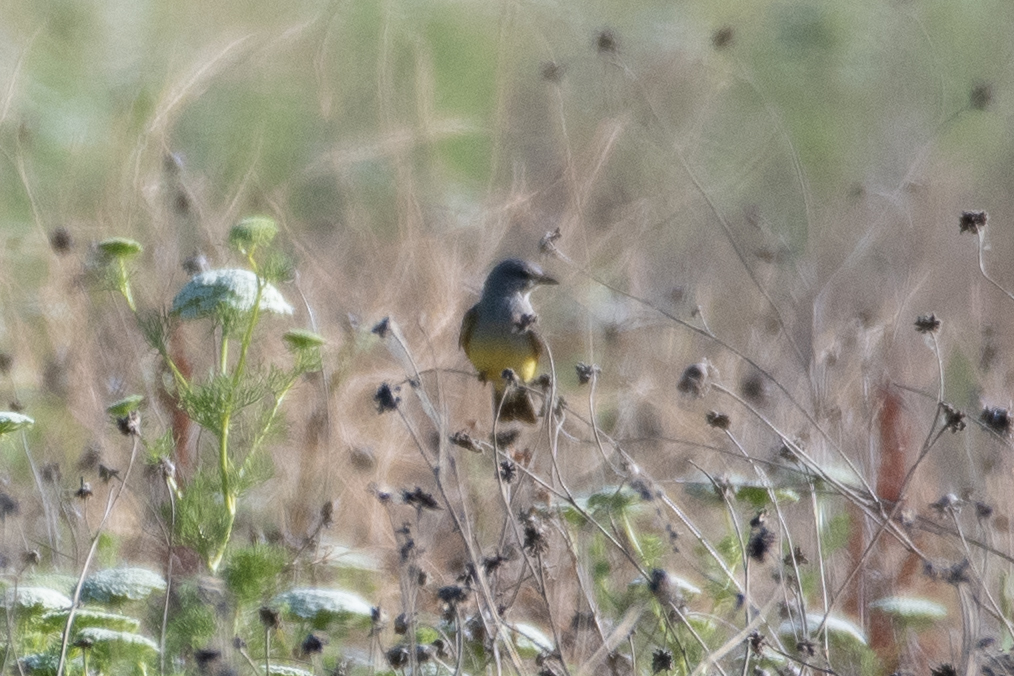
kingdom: Animalia
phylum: Chordata
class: Aves
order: Passeriformes
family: Tyrannidae
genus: Tyrannus
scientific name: Tyrannus verticalis
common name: Western kingbird
